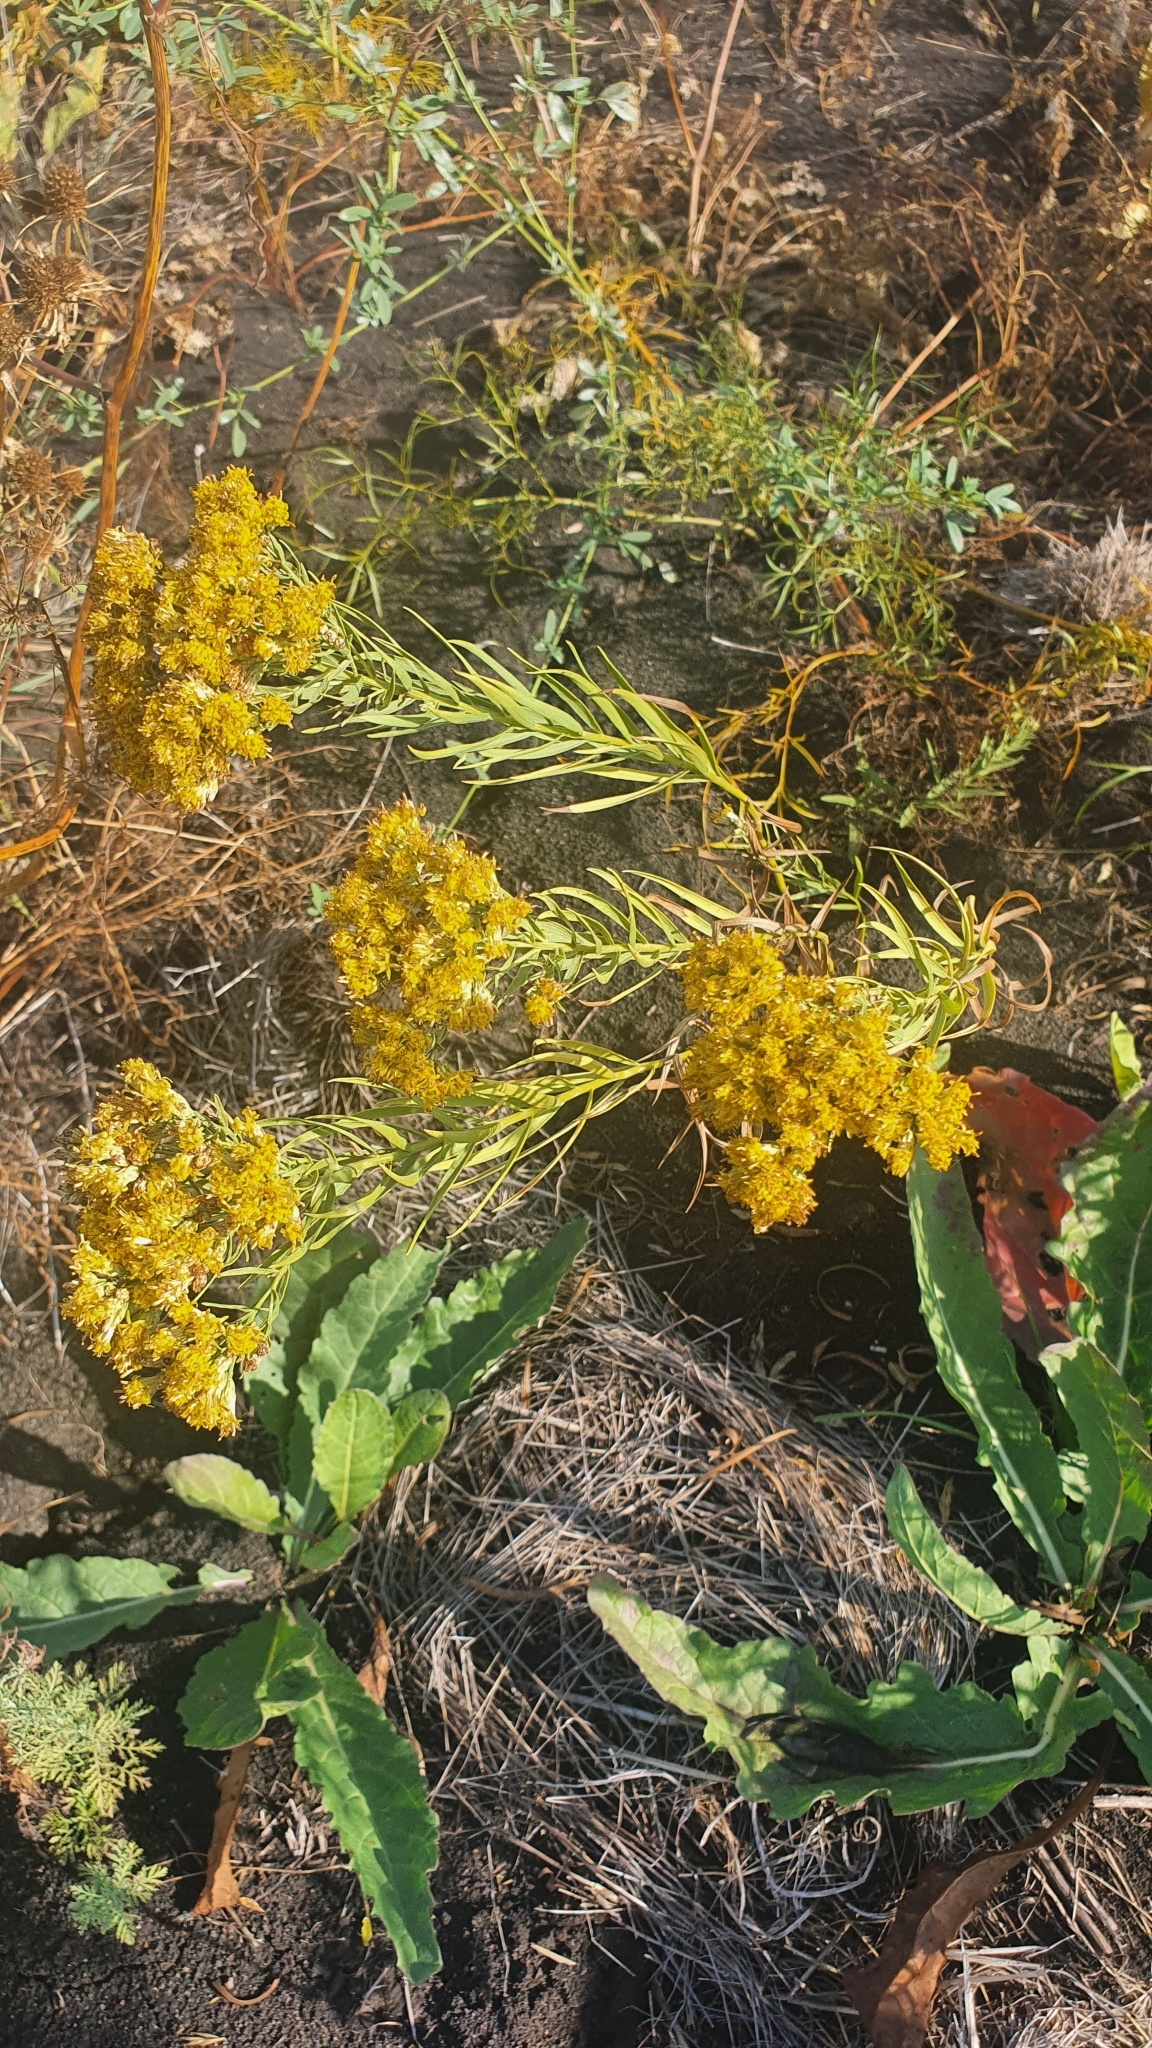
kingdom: Plantae
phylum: Tracheophyta
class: Magnoliopsida
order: Asterales
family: Asteraceae
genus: Galatella
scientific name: Galatella biflora
